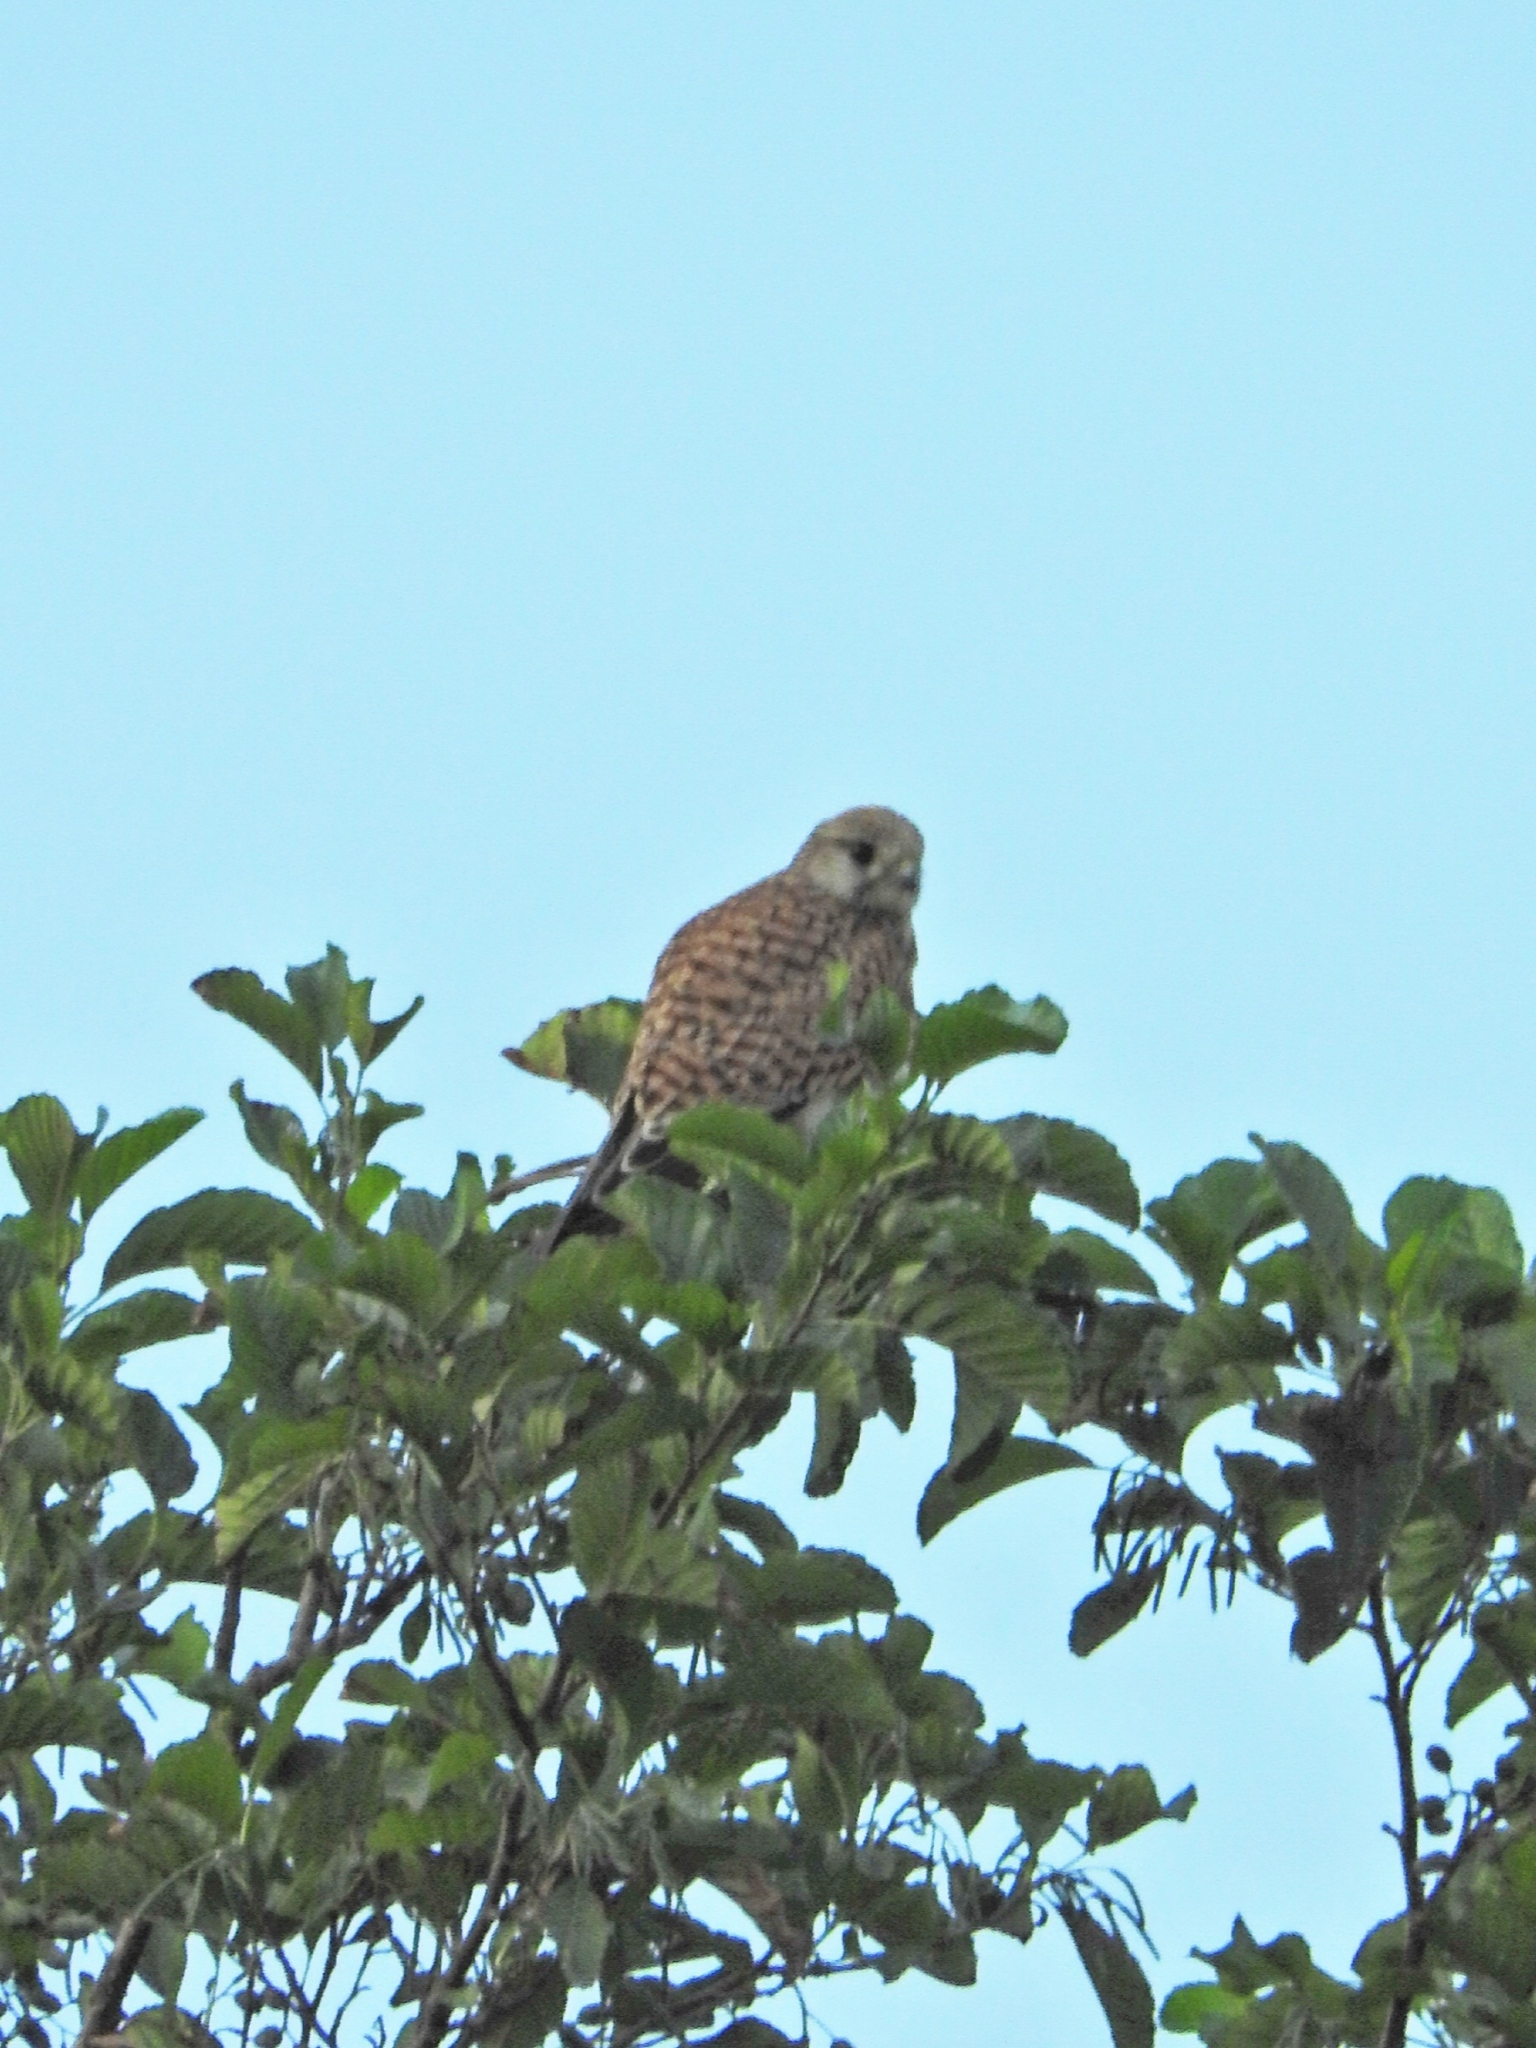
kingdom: Animalia
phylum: Chordata
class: Aves
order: Falconiformes
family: Falconidae
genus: Falco
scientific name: Falco tinnunculus
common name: Common kestrel
